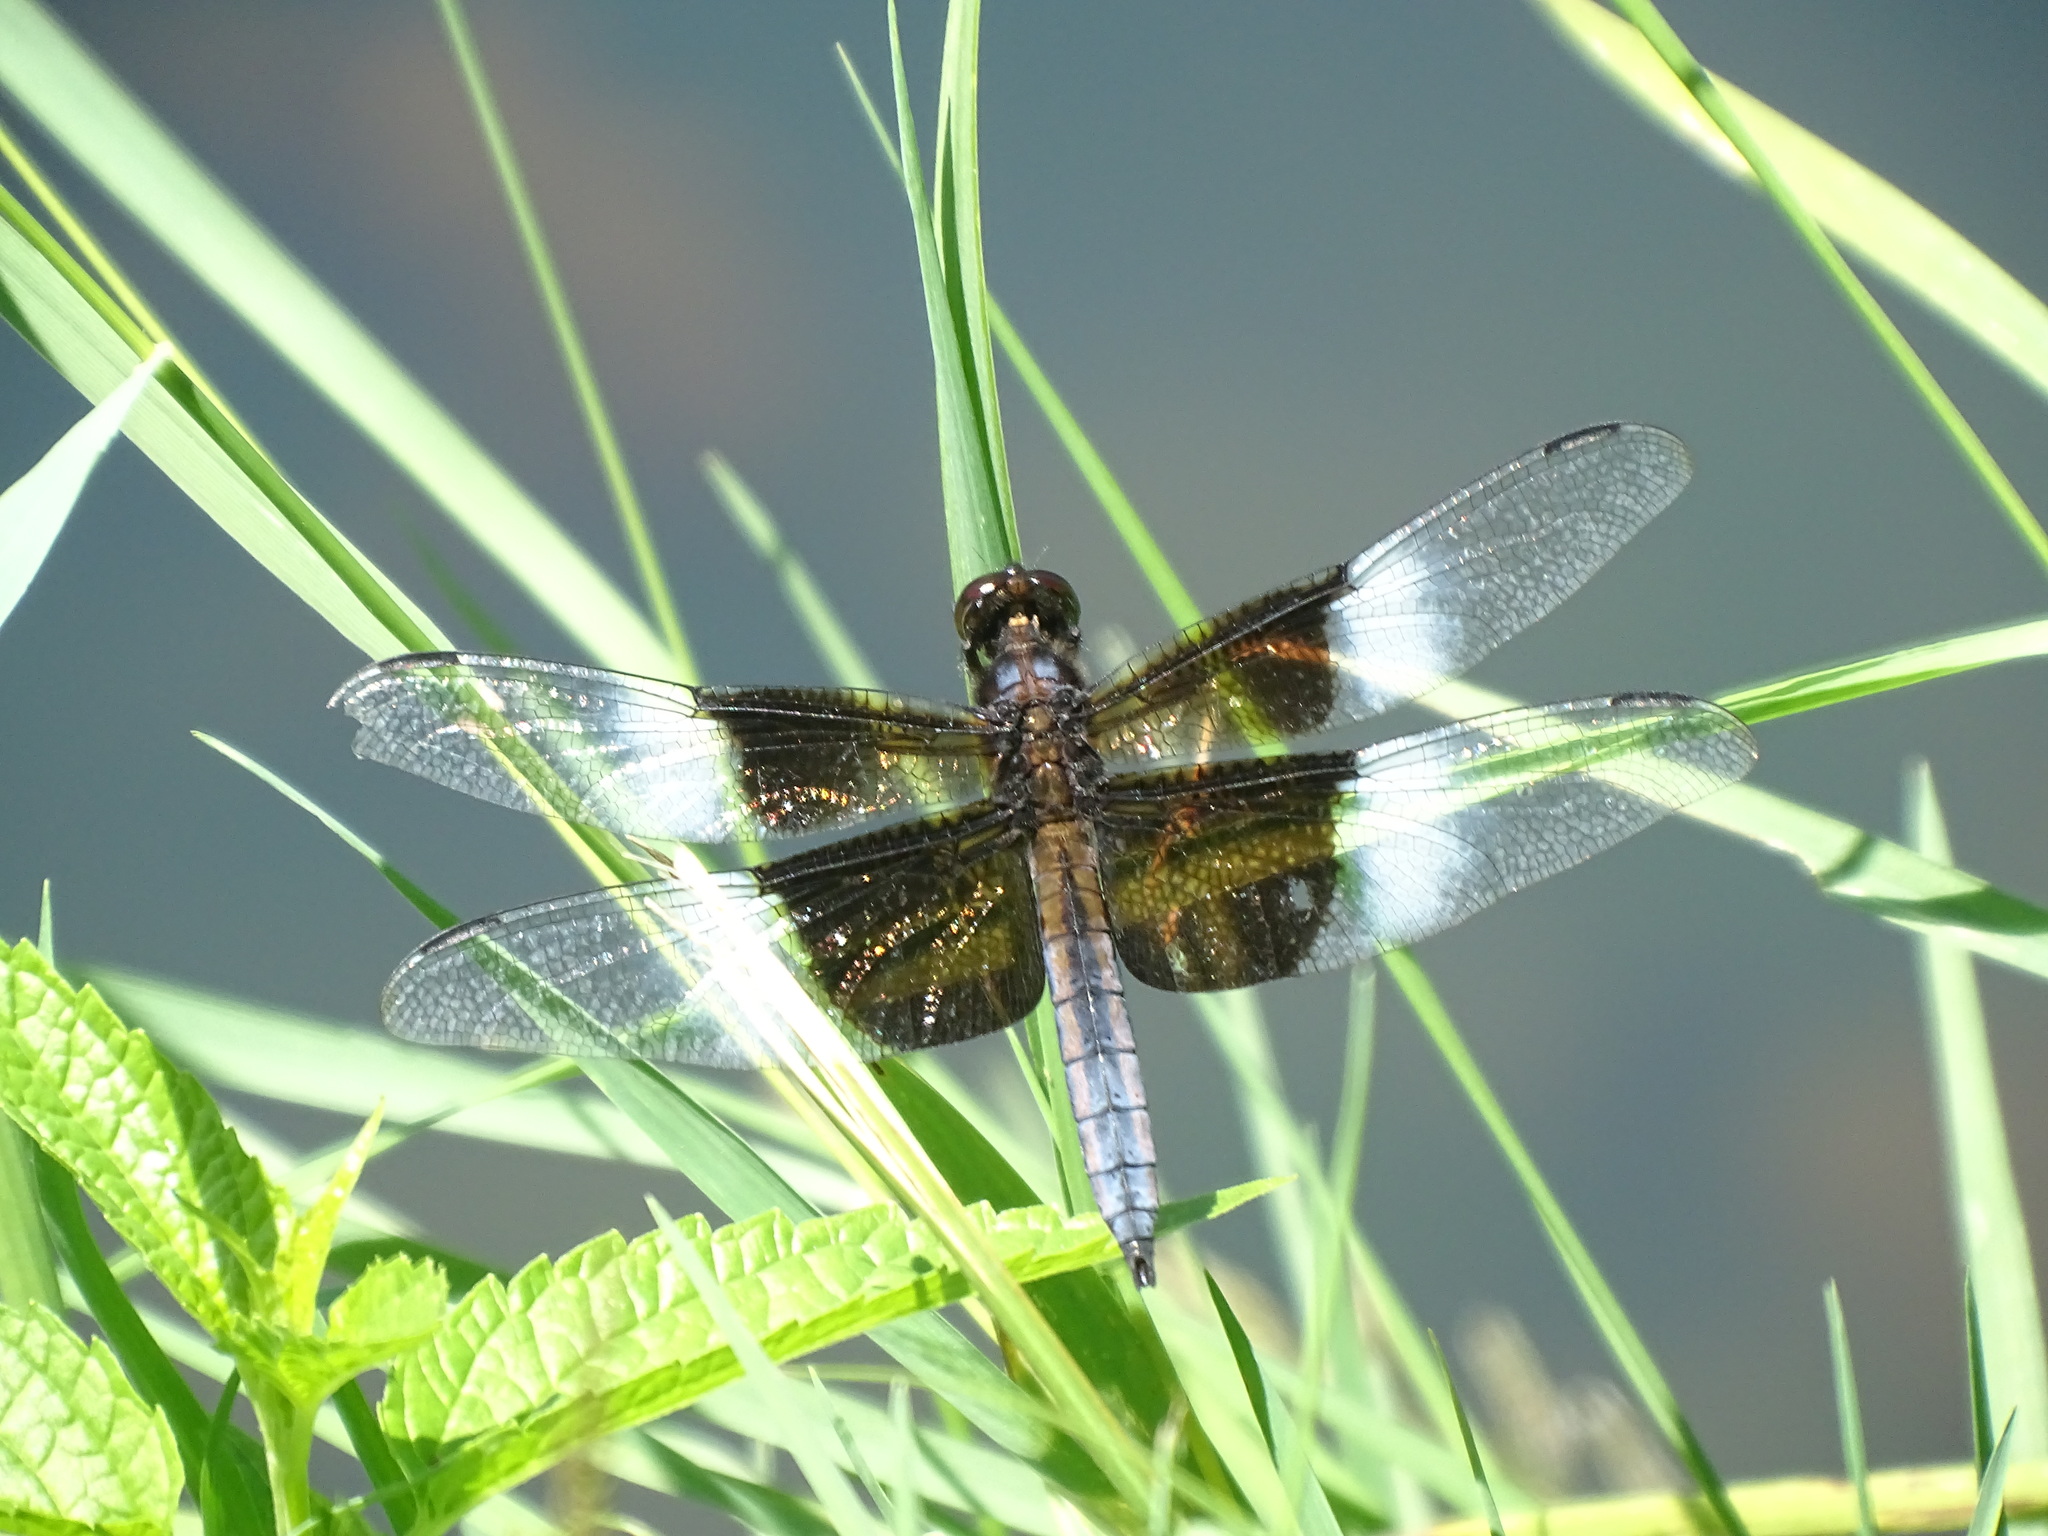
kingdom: Animalia
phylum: Arthropoda
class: Insecta
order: Odonata
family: Libellulidae
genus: Libellula
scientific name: Libellula luctuosa
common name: Widow skimmer
